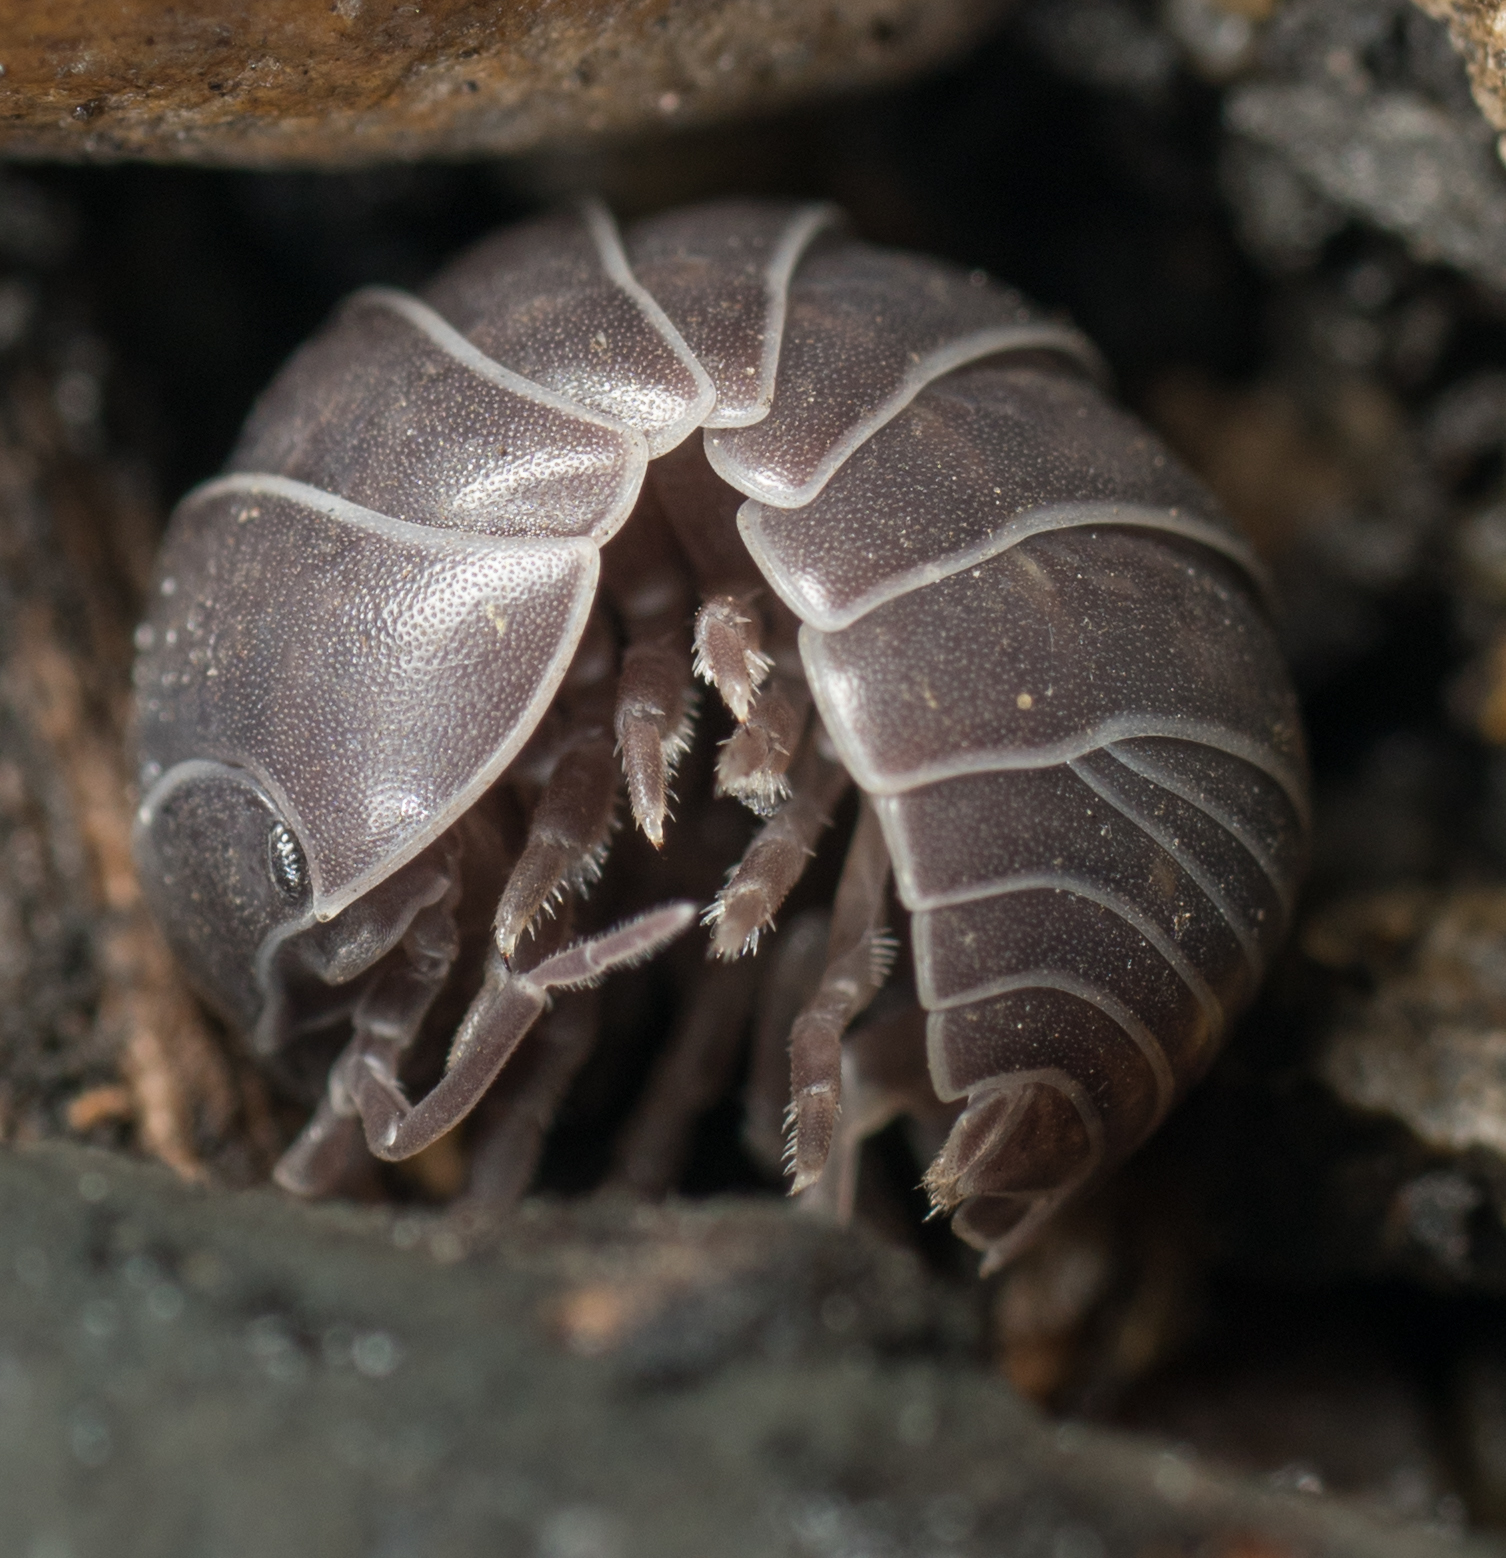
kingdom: Animalia
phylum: Arthropoda
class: Malacostraca
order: Isopoda
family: Armadillidiidae
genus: Armadillidium
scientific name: Armadillidium vulgare
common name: Common pill woodlouse
